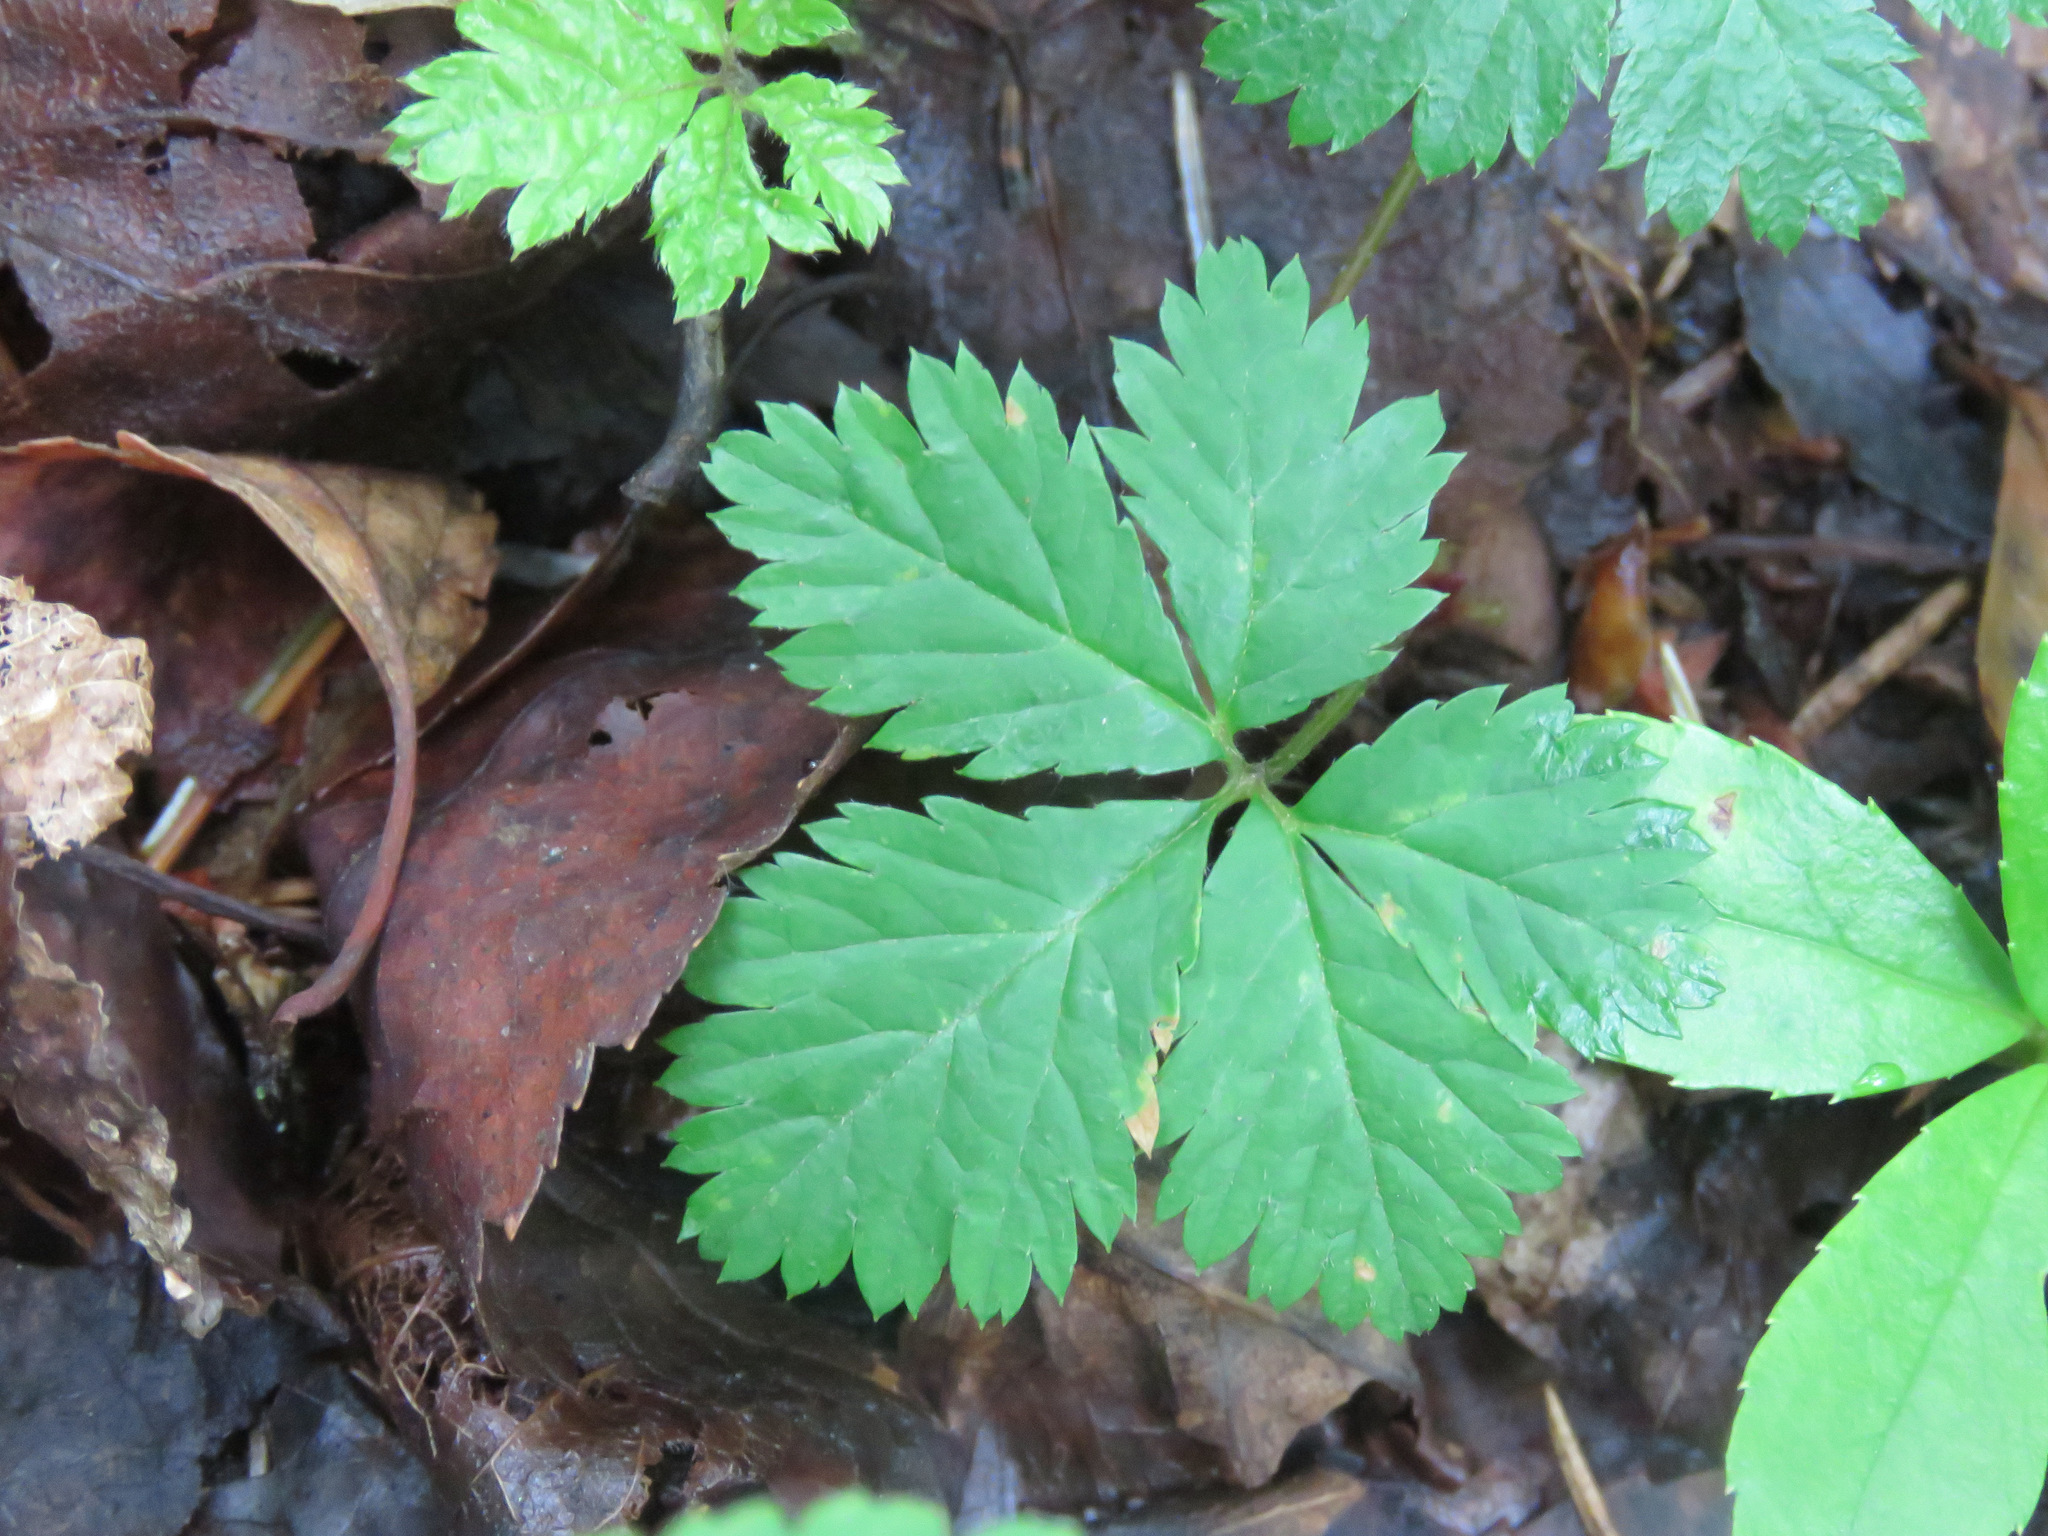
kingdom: Plantae
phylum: Tracheophyta
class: Magnoliopsida
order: Rosales
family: Rosaceae
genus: Rubus
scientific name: Rubus pedatus
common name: Creeping raspberry
